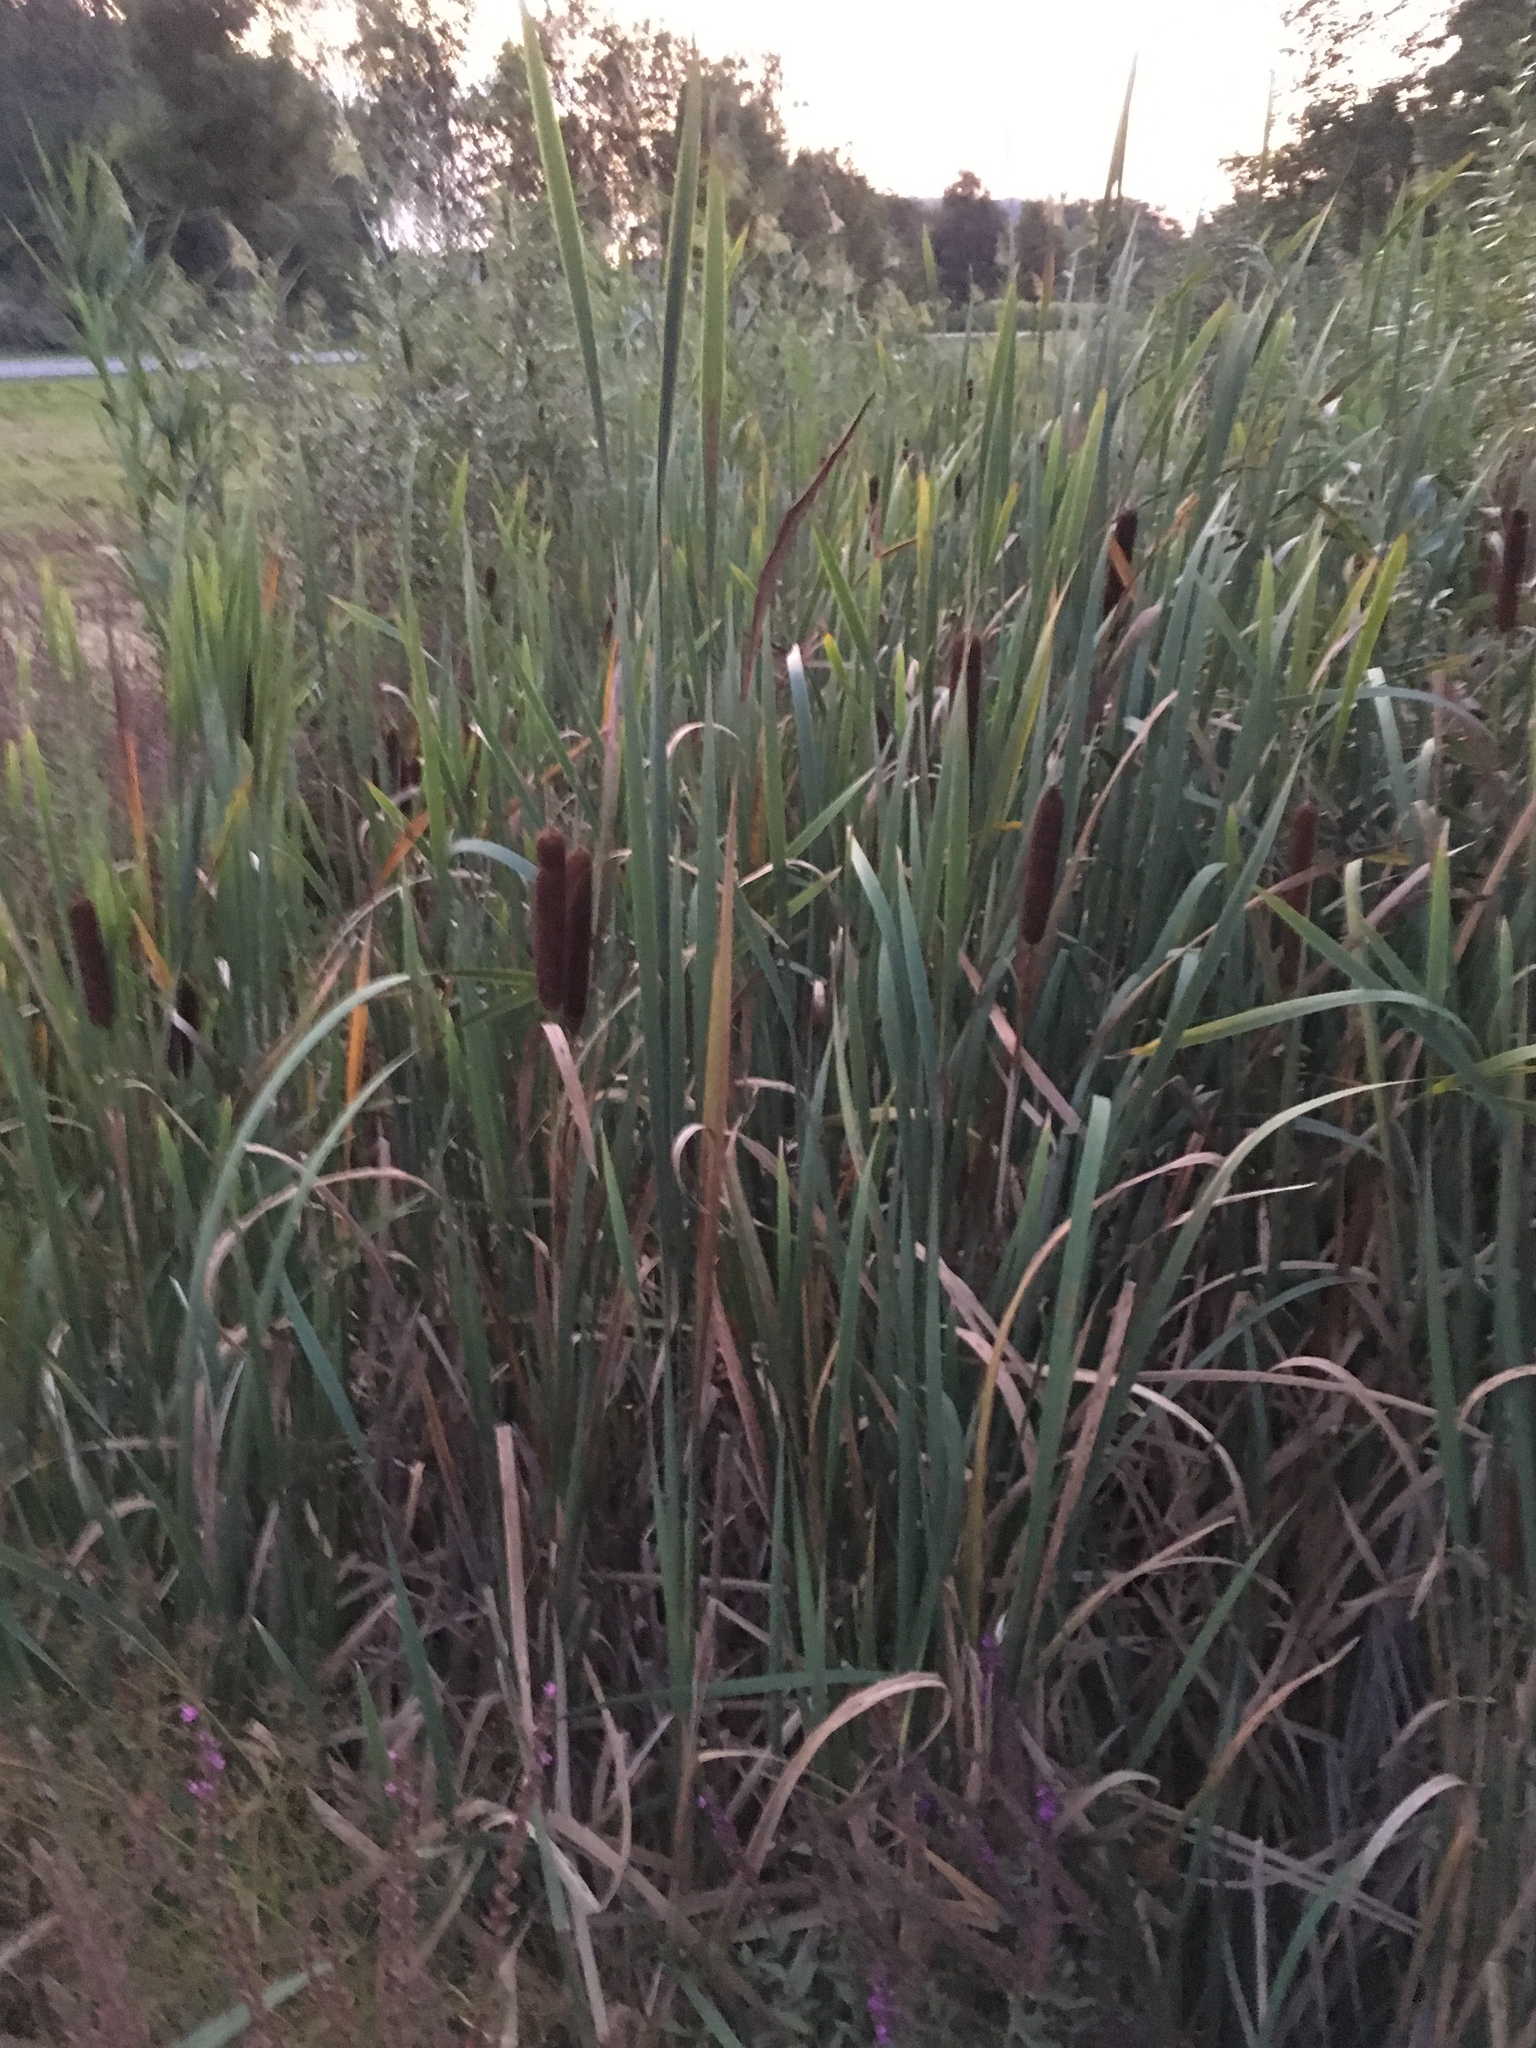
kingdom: Plantae
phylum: Tracheophyta
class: Liliopsida
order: Poales
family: Typhaceae
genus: Typha
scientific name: Typha latifolia
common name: Broadleaf cattail
